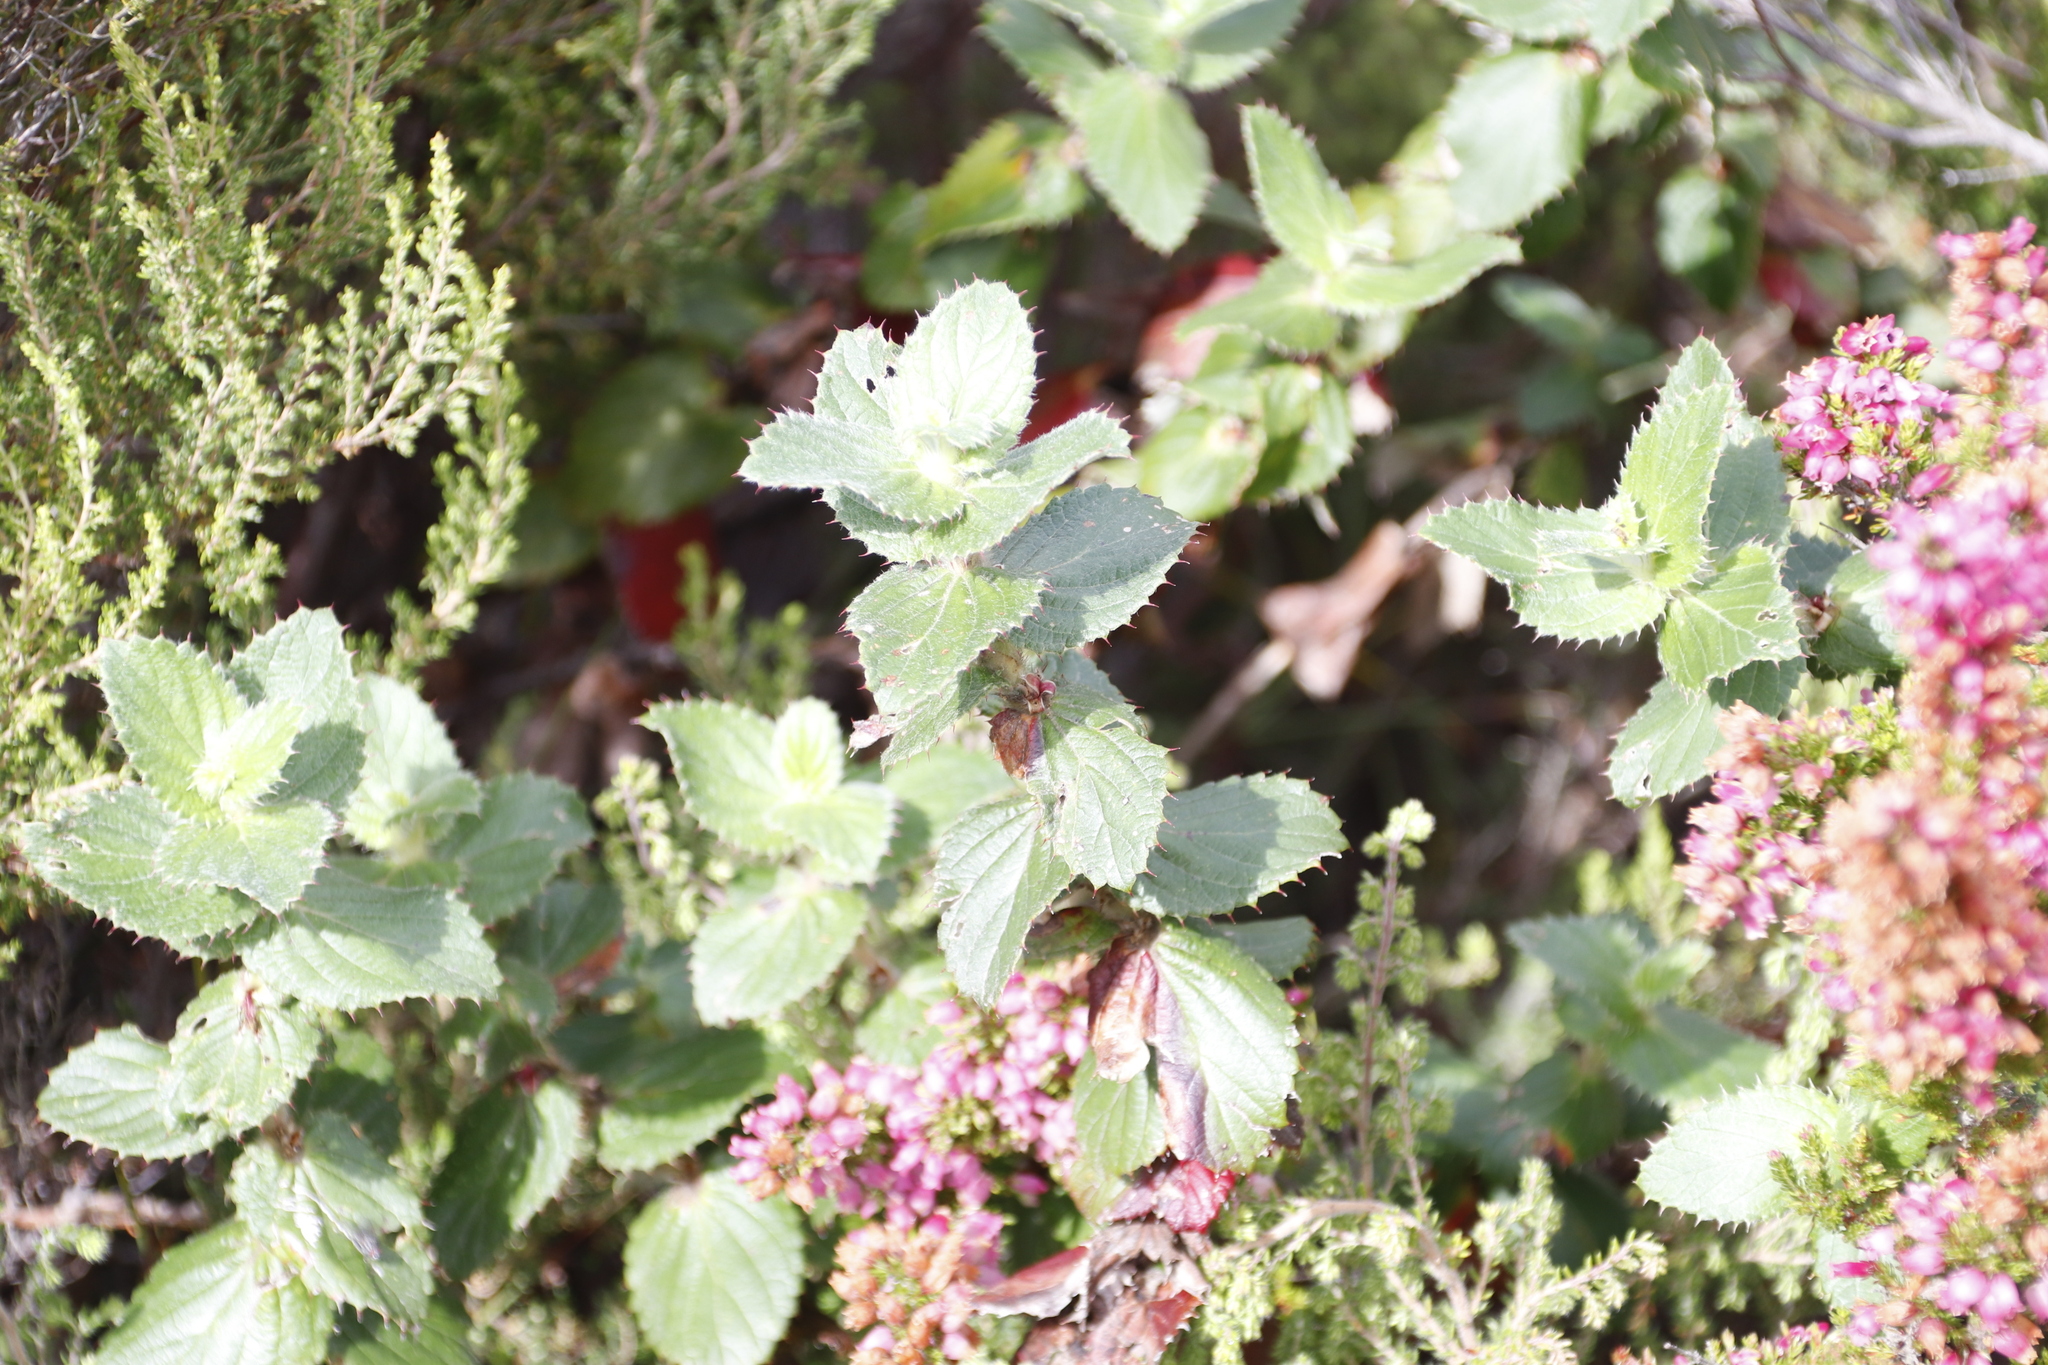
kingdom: Plantae
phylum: Tracheophyta
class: Magnoliopsida
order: Rosales
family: Rosaceae
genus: Cliffortia
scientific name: Cliffortia hirsuta
